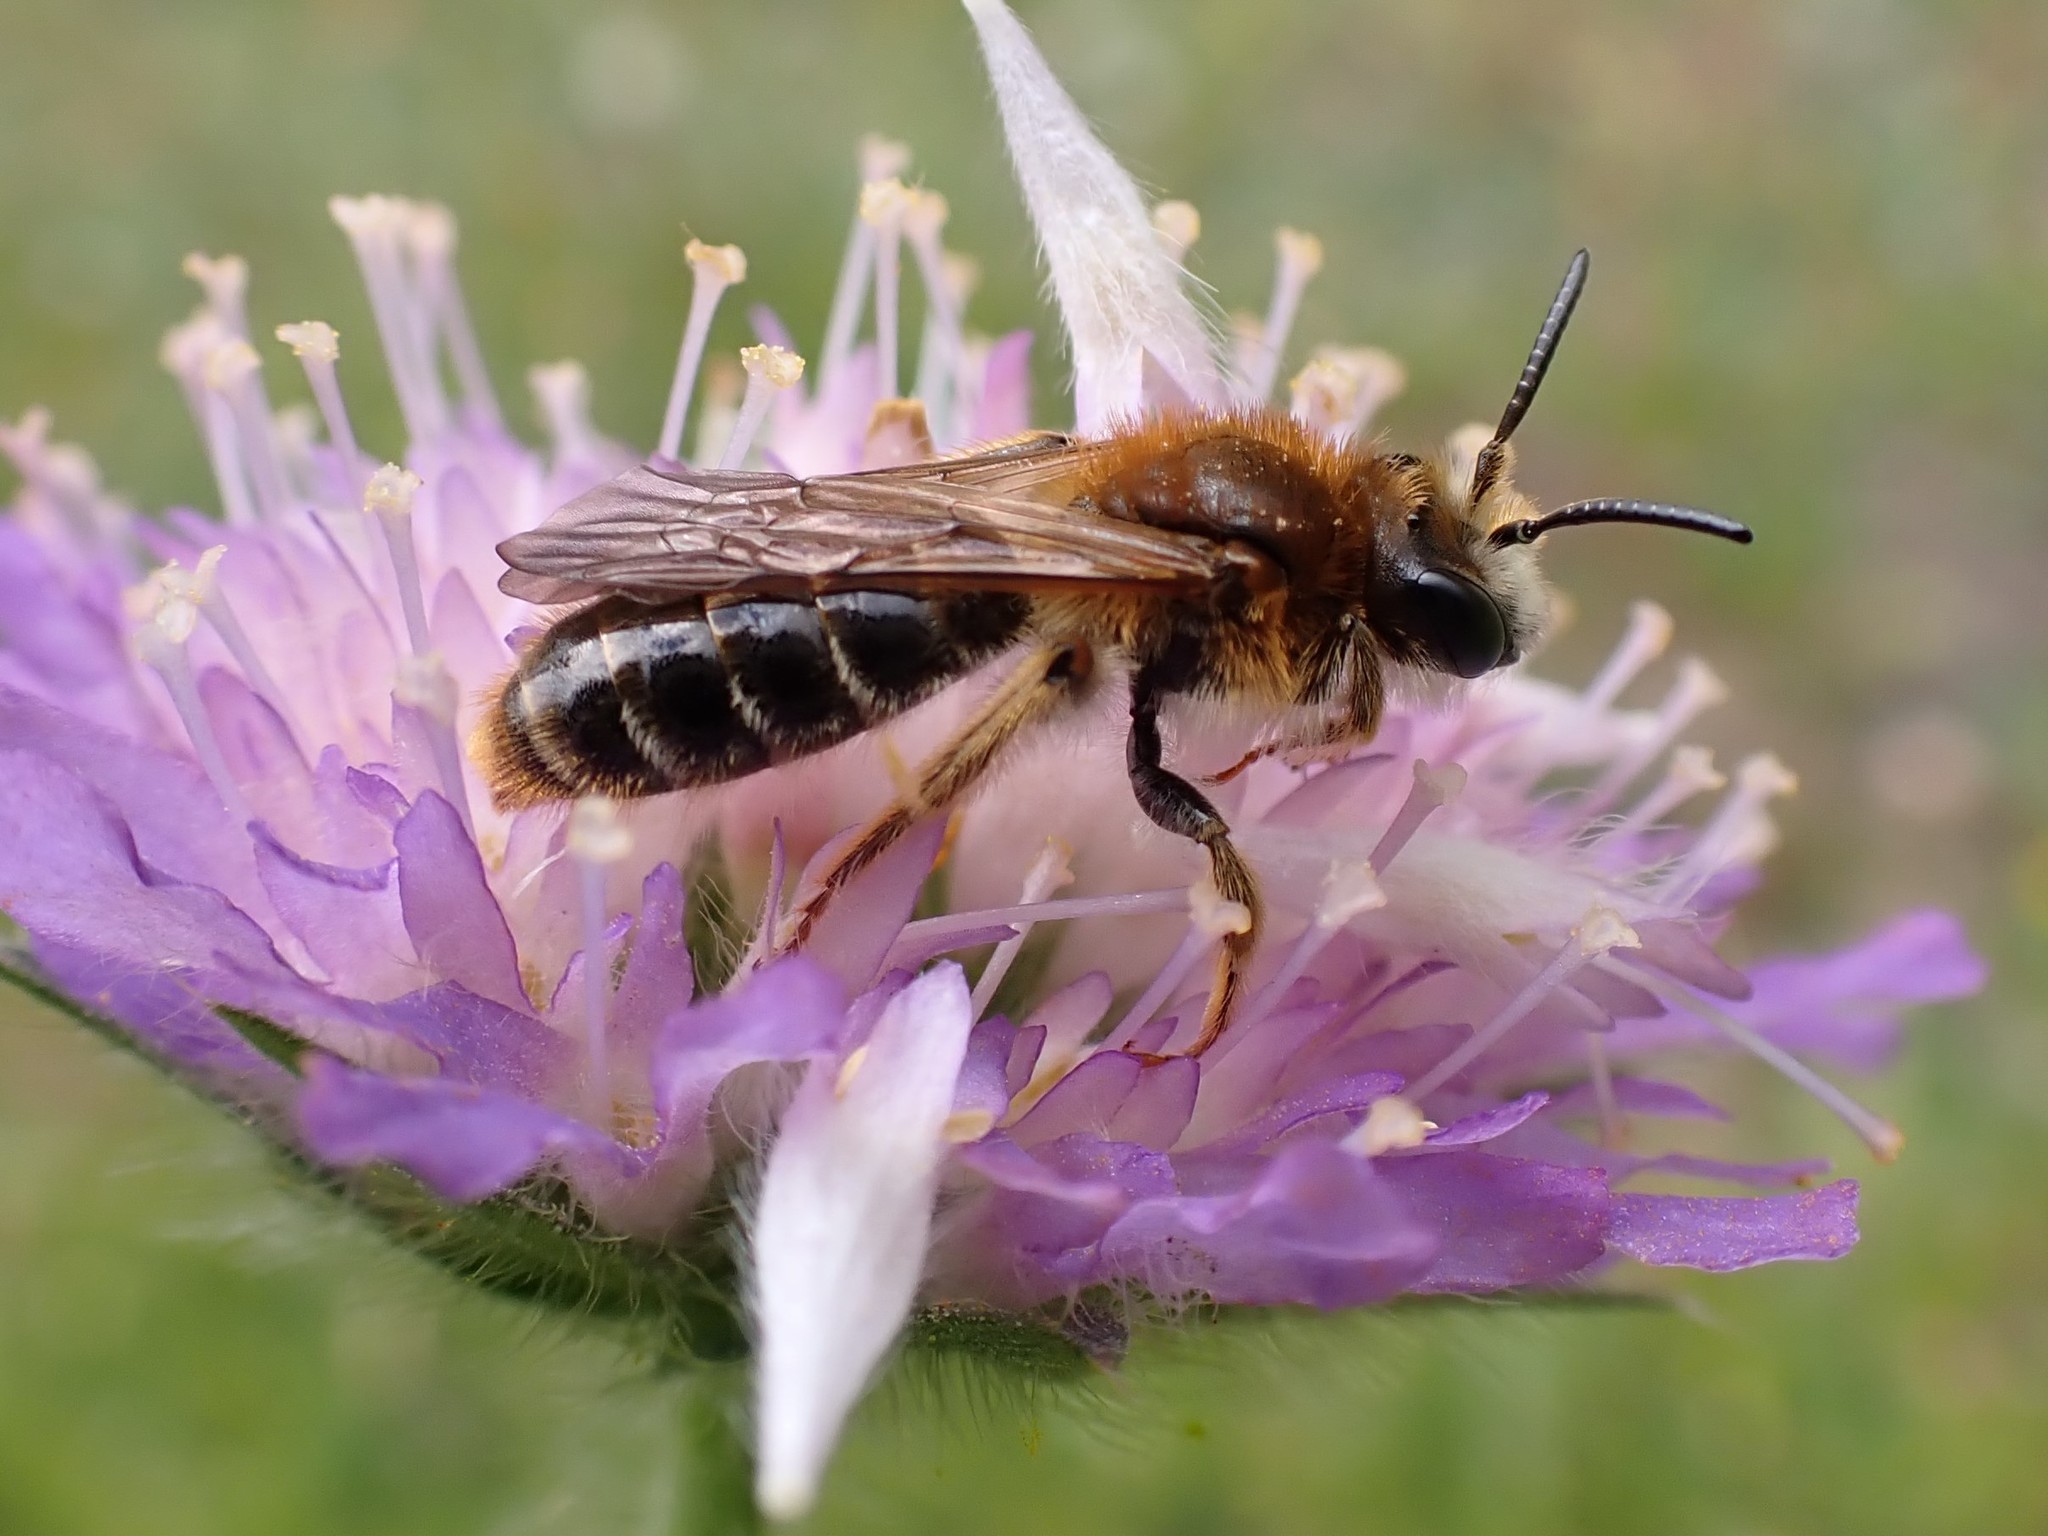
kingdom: Animalia
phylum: Arthropoda
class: Insecta
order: Hymenoptera
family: Andrenidae
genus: Andrena
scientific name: Andrena hattorfiana
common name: Large scabious mining bee
